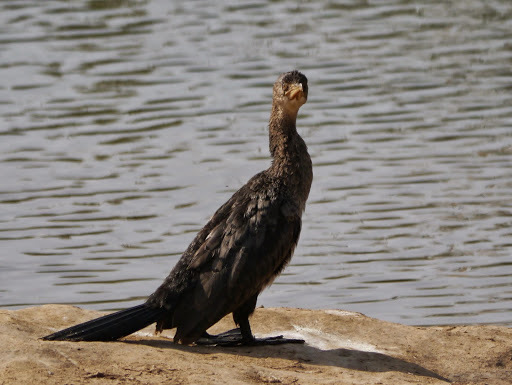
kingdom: Animalia
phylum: Chordata
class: Aves
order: Suliformes
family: Phalacrocoracidae
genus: Microcarbo
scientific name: Microcarbo africanus
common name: Long-tailed cormorant
